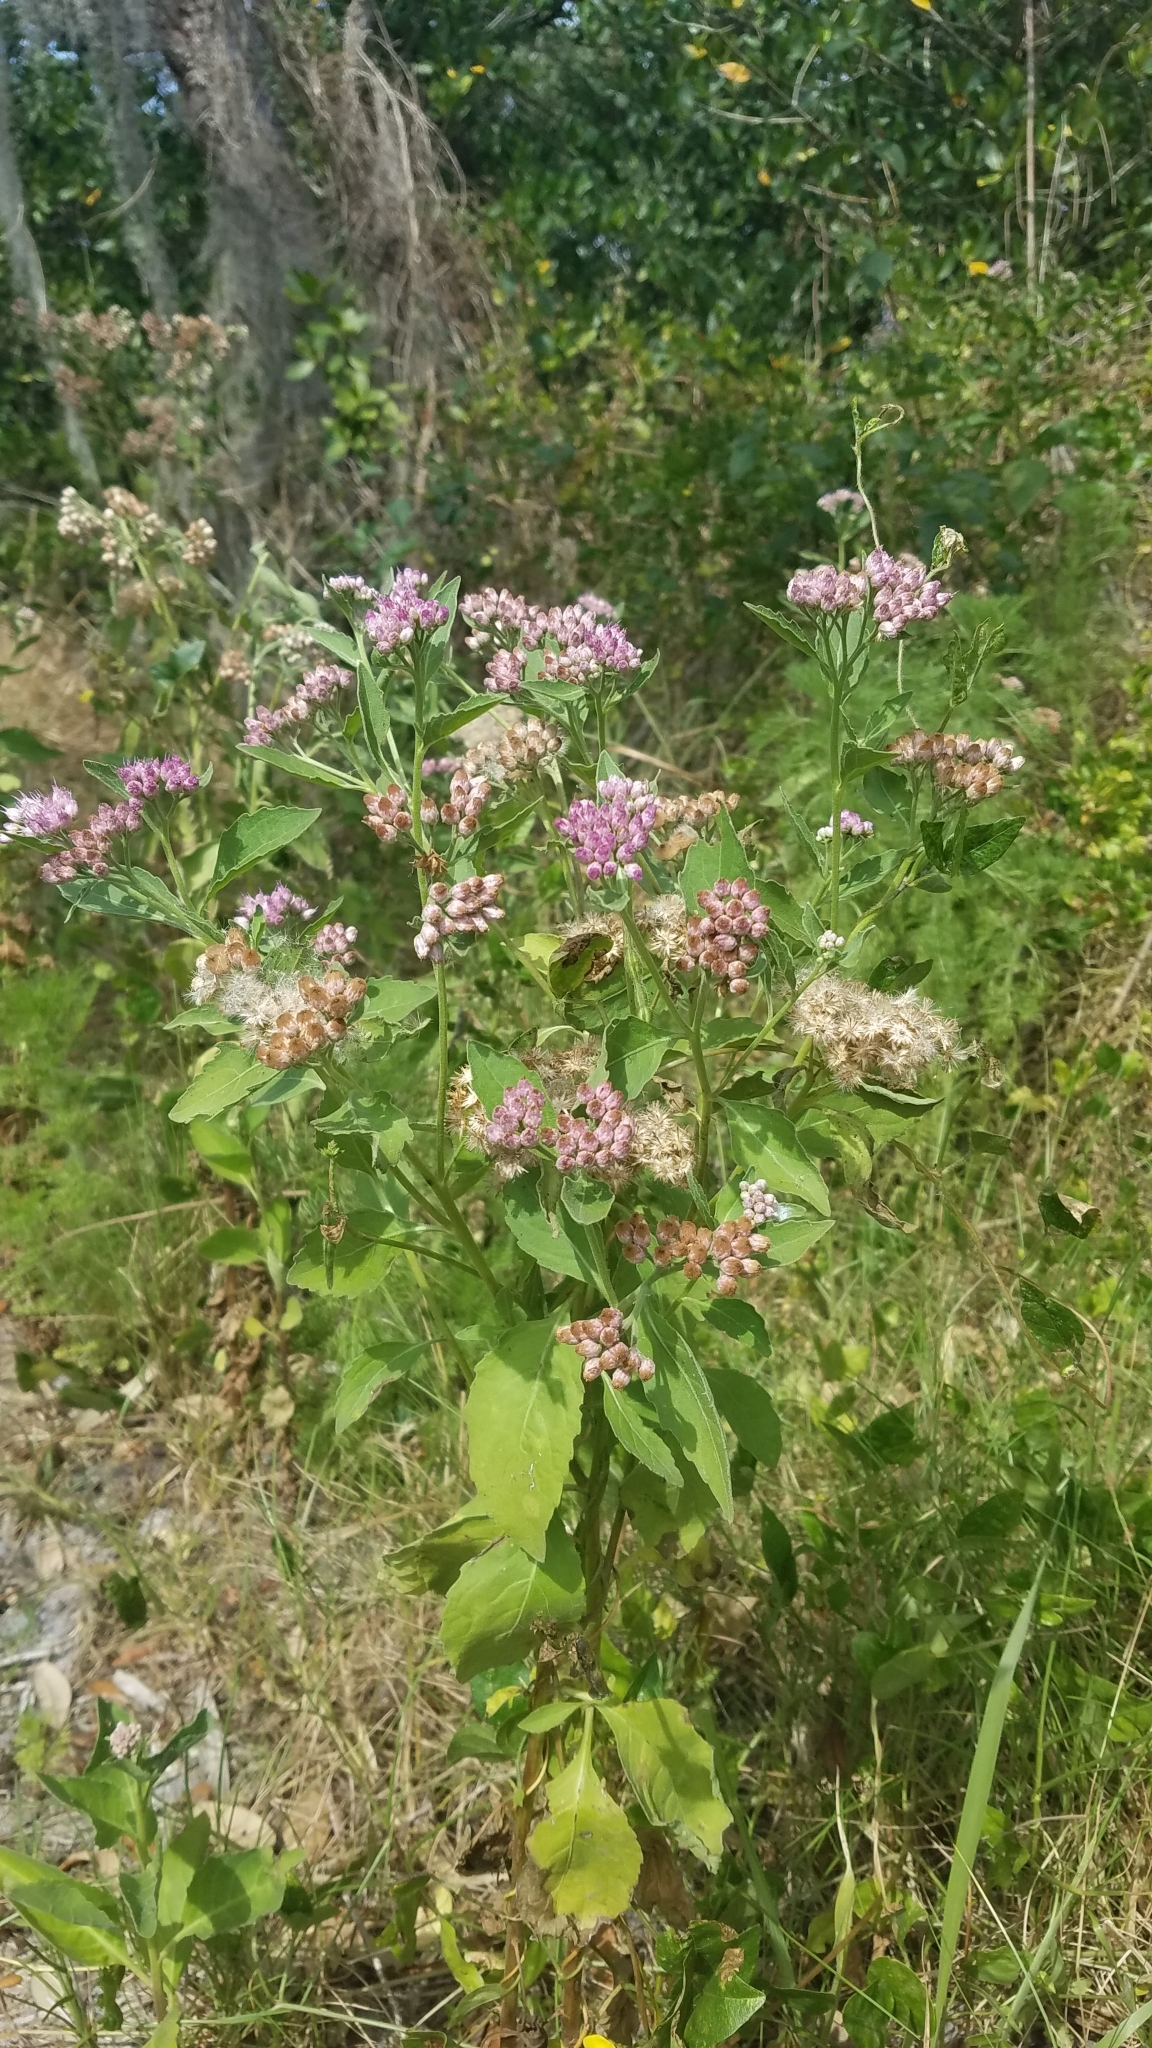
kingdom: Plantae
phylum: Tracheophyta
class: Magnoliopsida
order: Asterales
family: Asteraceae
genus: Pluchea
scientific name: Pluchea odorata
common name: Saltmarsh fleabane
